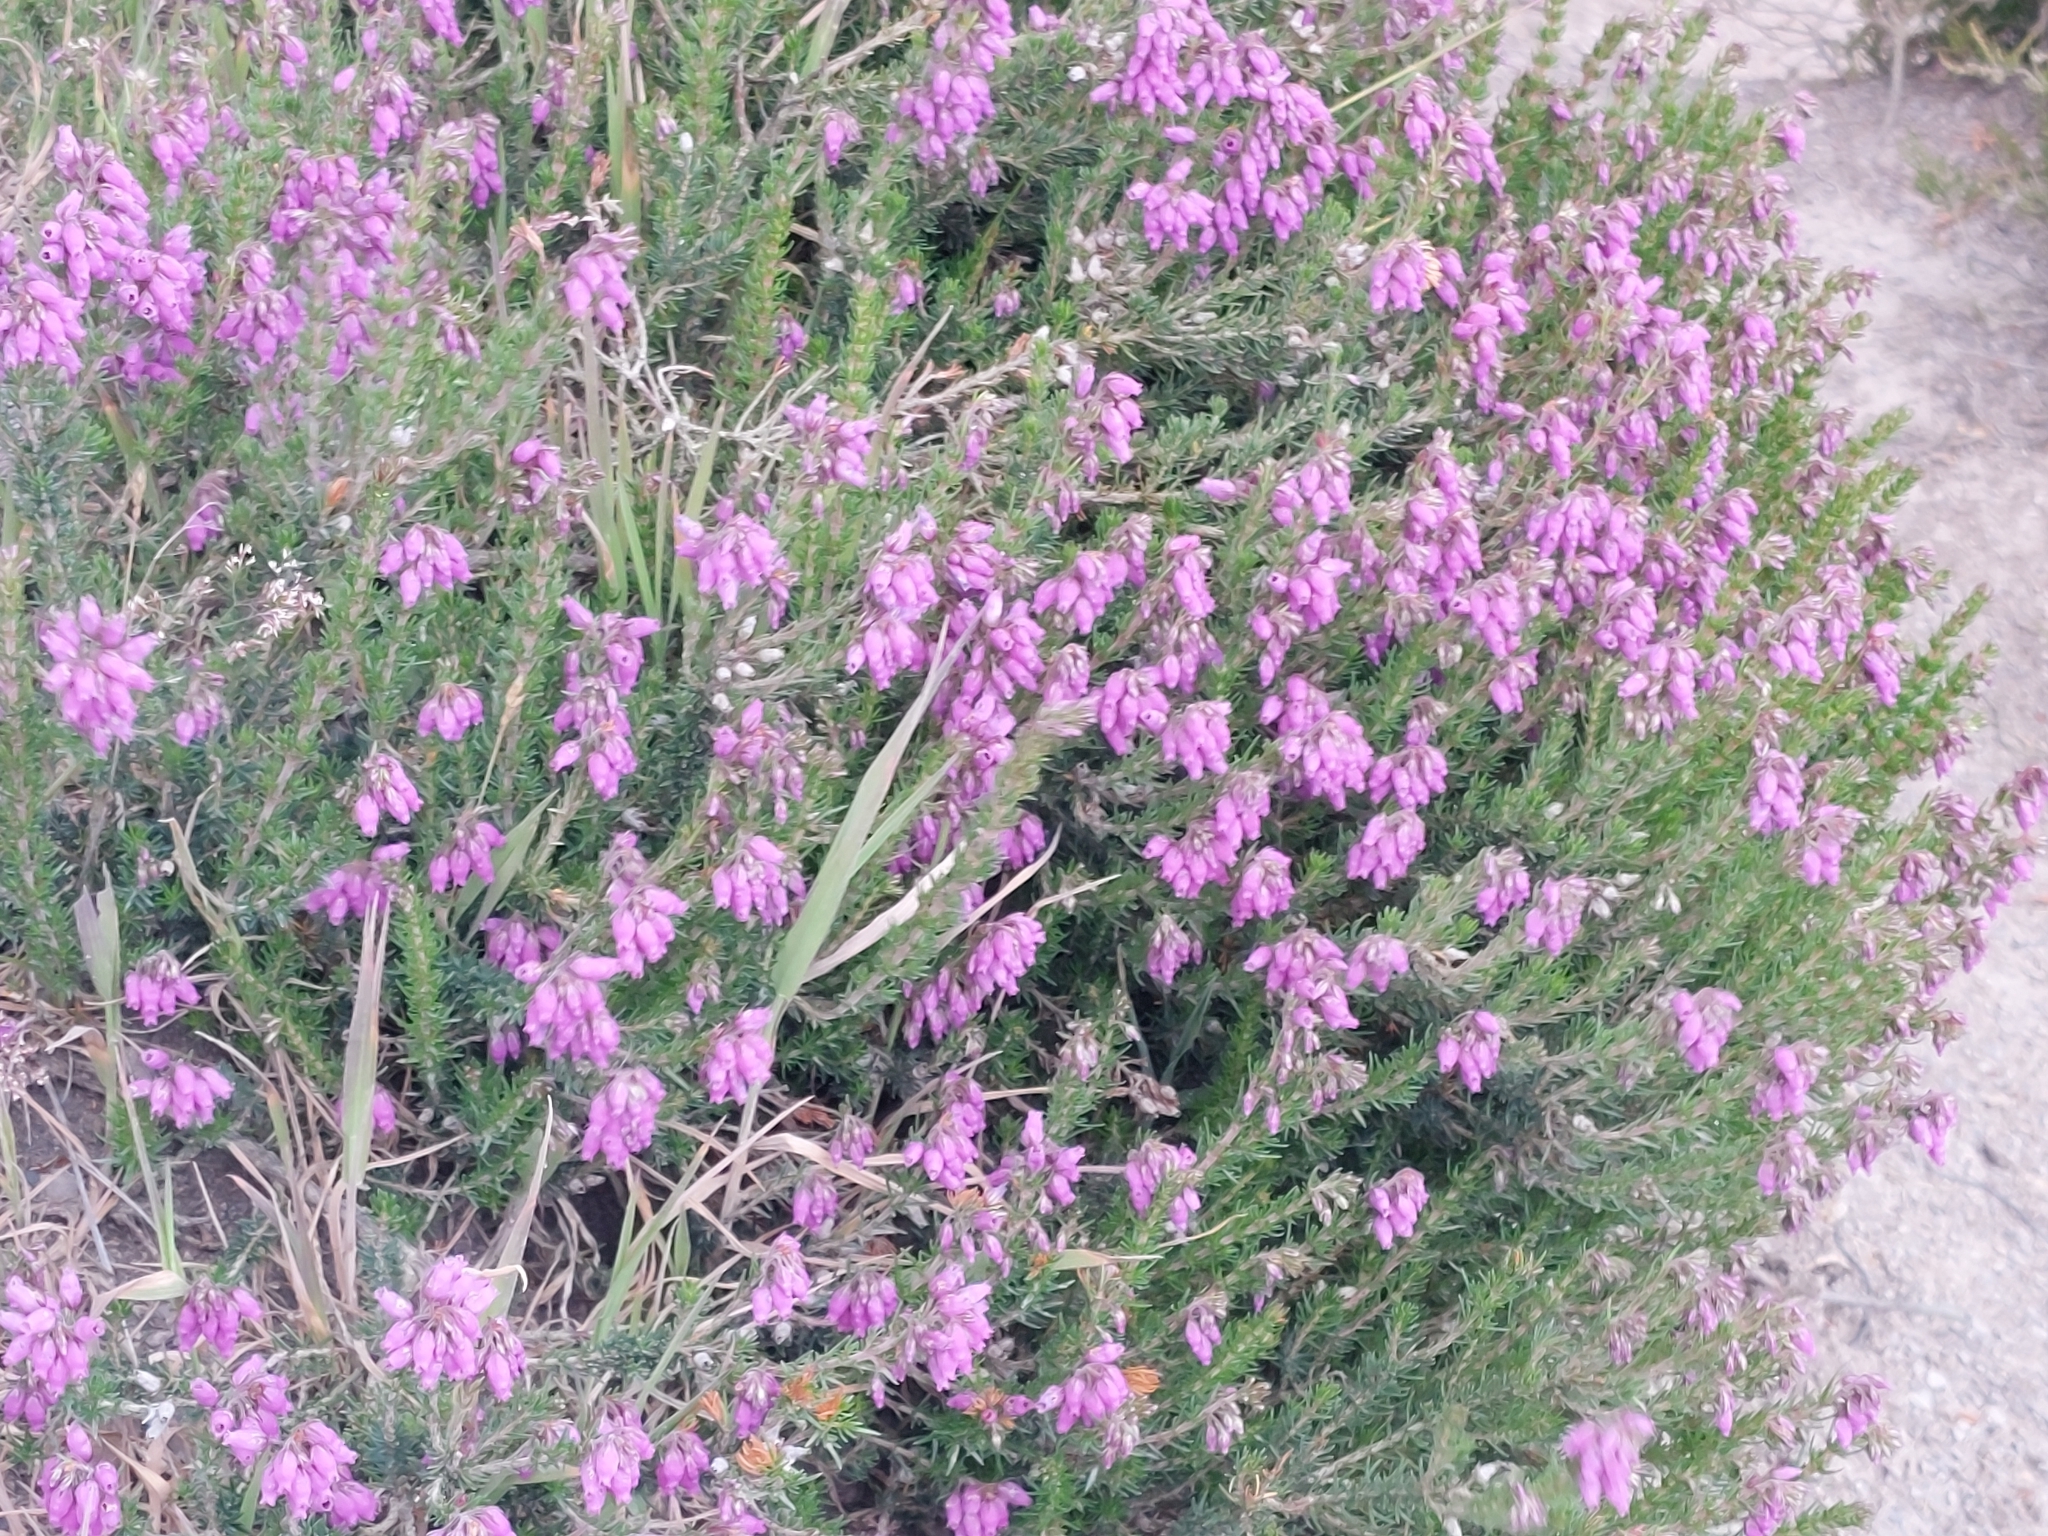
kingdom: Plantae
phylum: Tracheophyta
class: Magnoliopsida
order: Ericales
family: Ericaceae
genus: Erica
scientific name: Erica cinerea
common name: Bell heather
